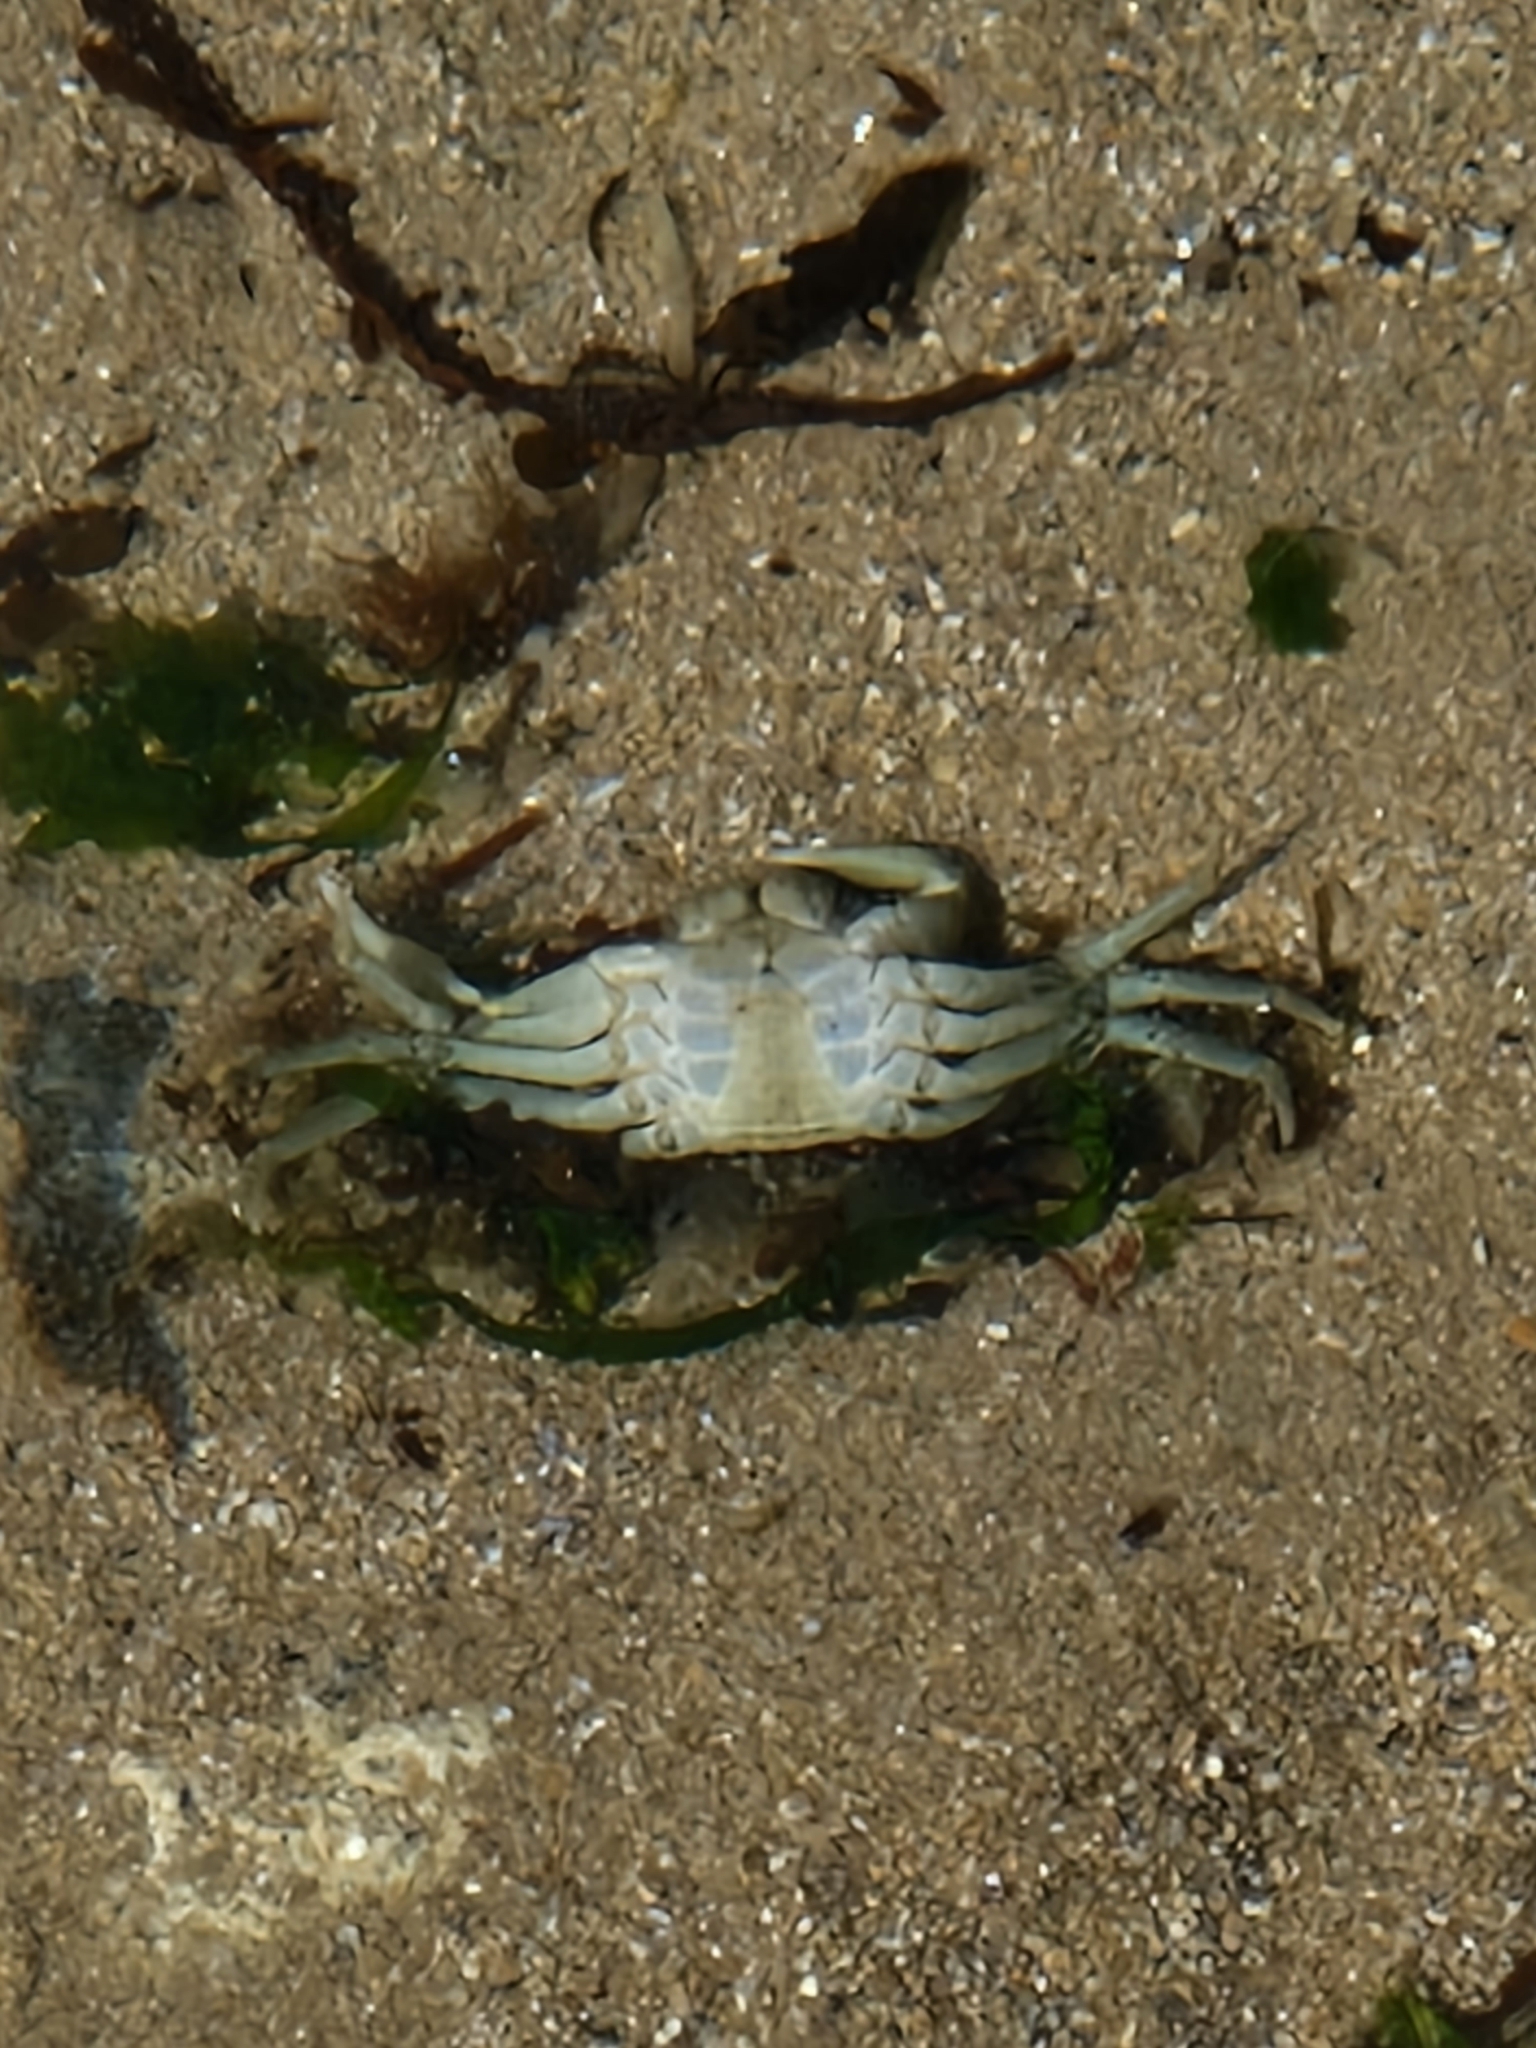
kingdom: Animalia
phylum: Arthropoda
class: Malacostraca
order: Decapoda
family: Carcinidae
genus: Carcinus
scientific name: Carcinus maenas
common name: European green crab
